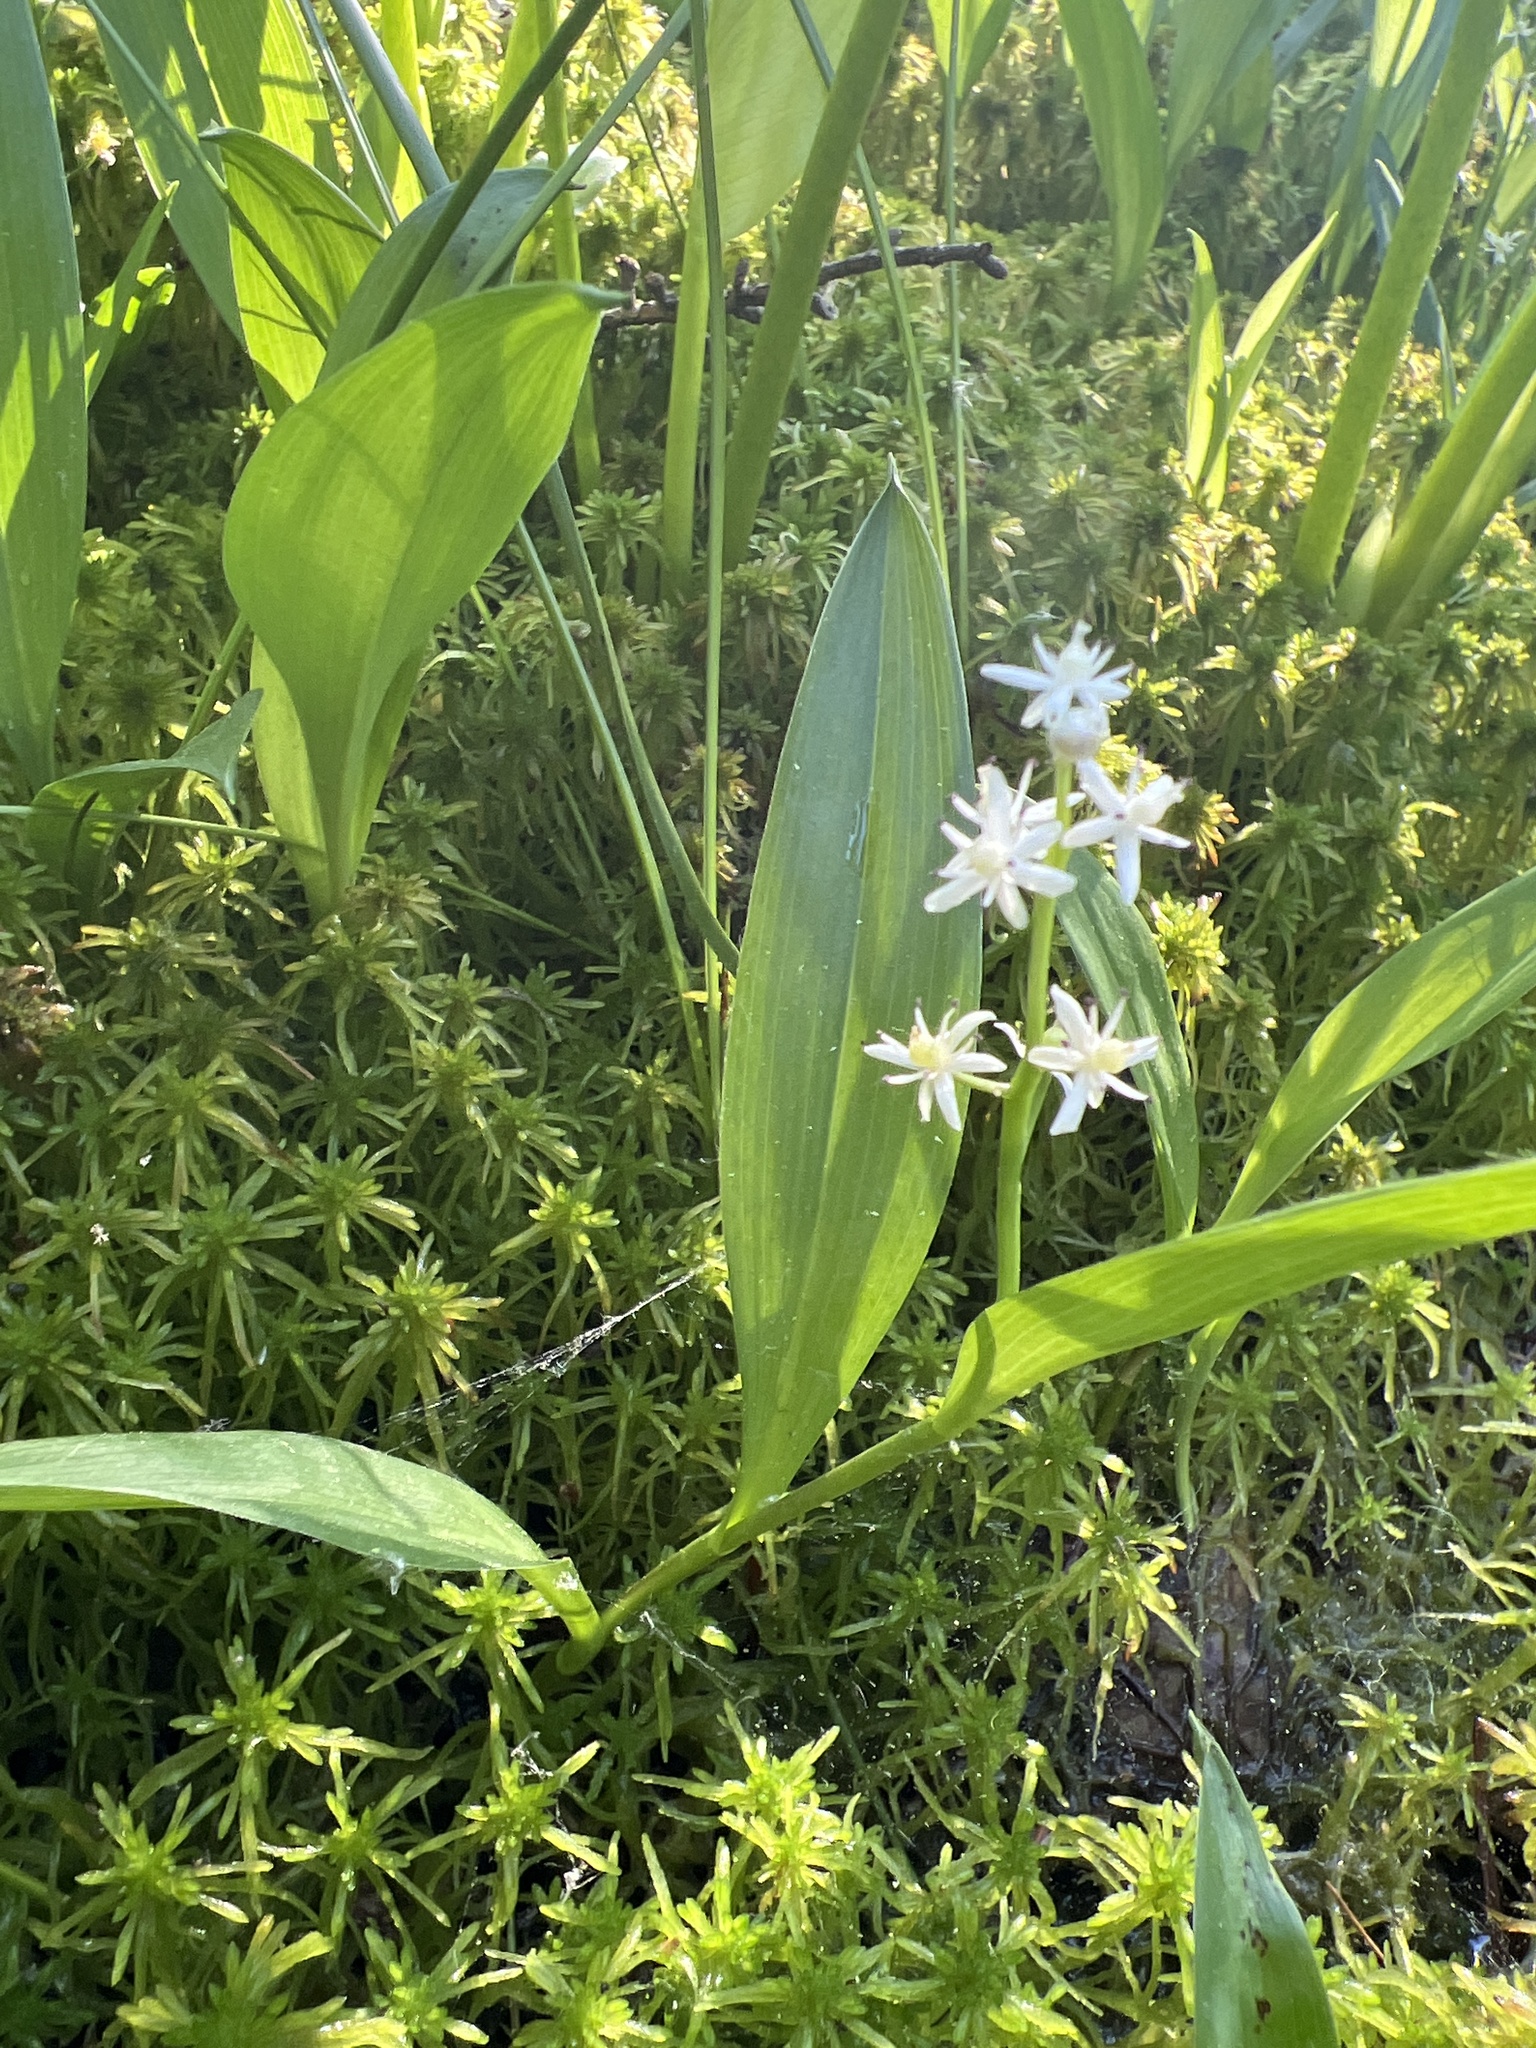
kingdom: Plantae
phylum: Tracheophyta
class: Liliopsida
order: Asparagales
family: Asparagaceae
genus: Maianthemum
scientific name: Maianthemum trifolium
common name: Swamp false solomon's seal
